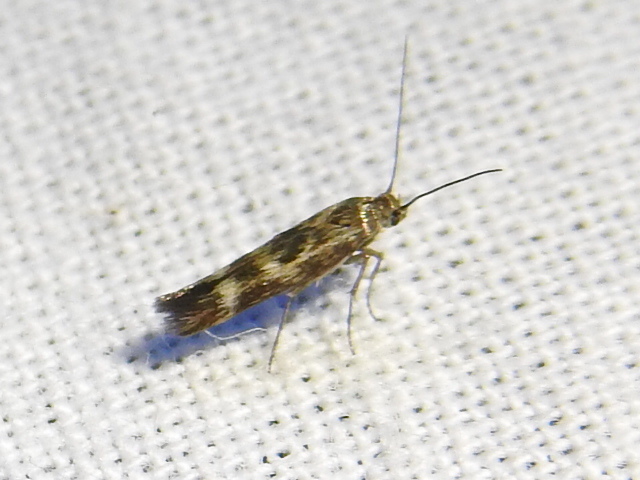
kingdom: Animalia
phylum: Arthropoda
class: Insecta
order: Lepidoptera
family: Scythrididae
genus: Scythris
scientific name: Scythris trivinctella
